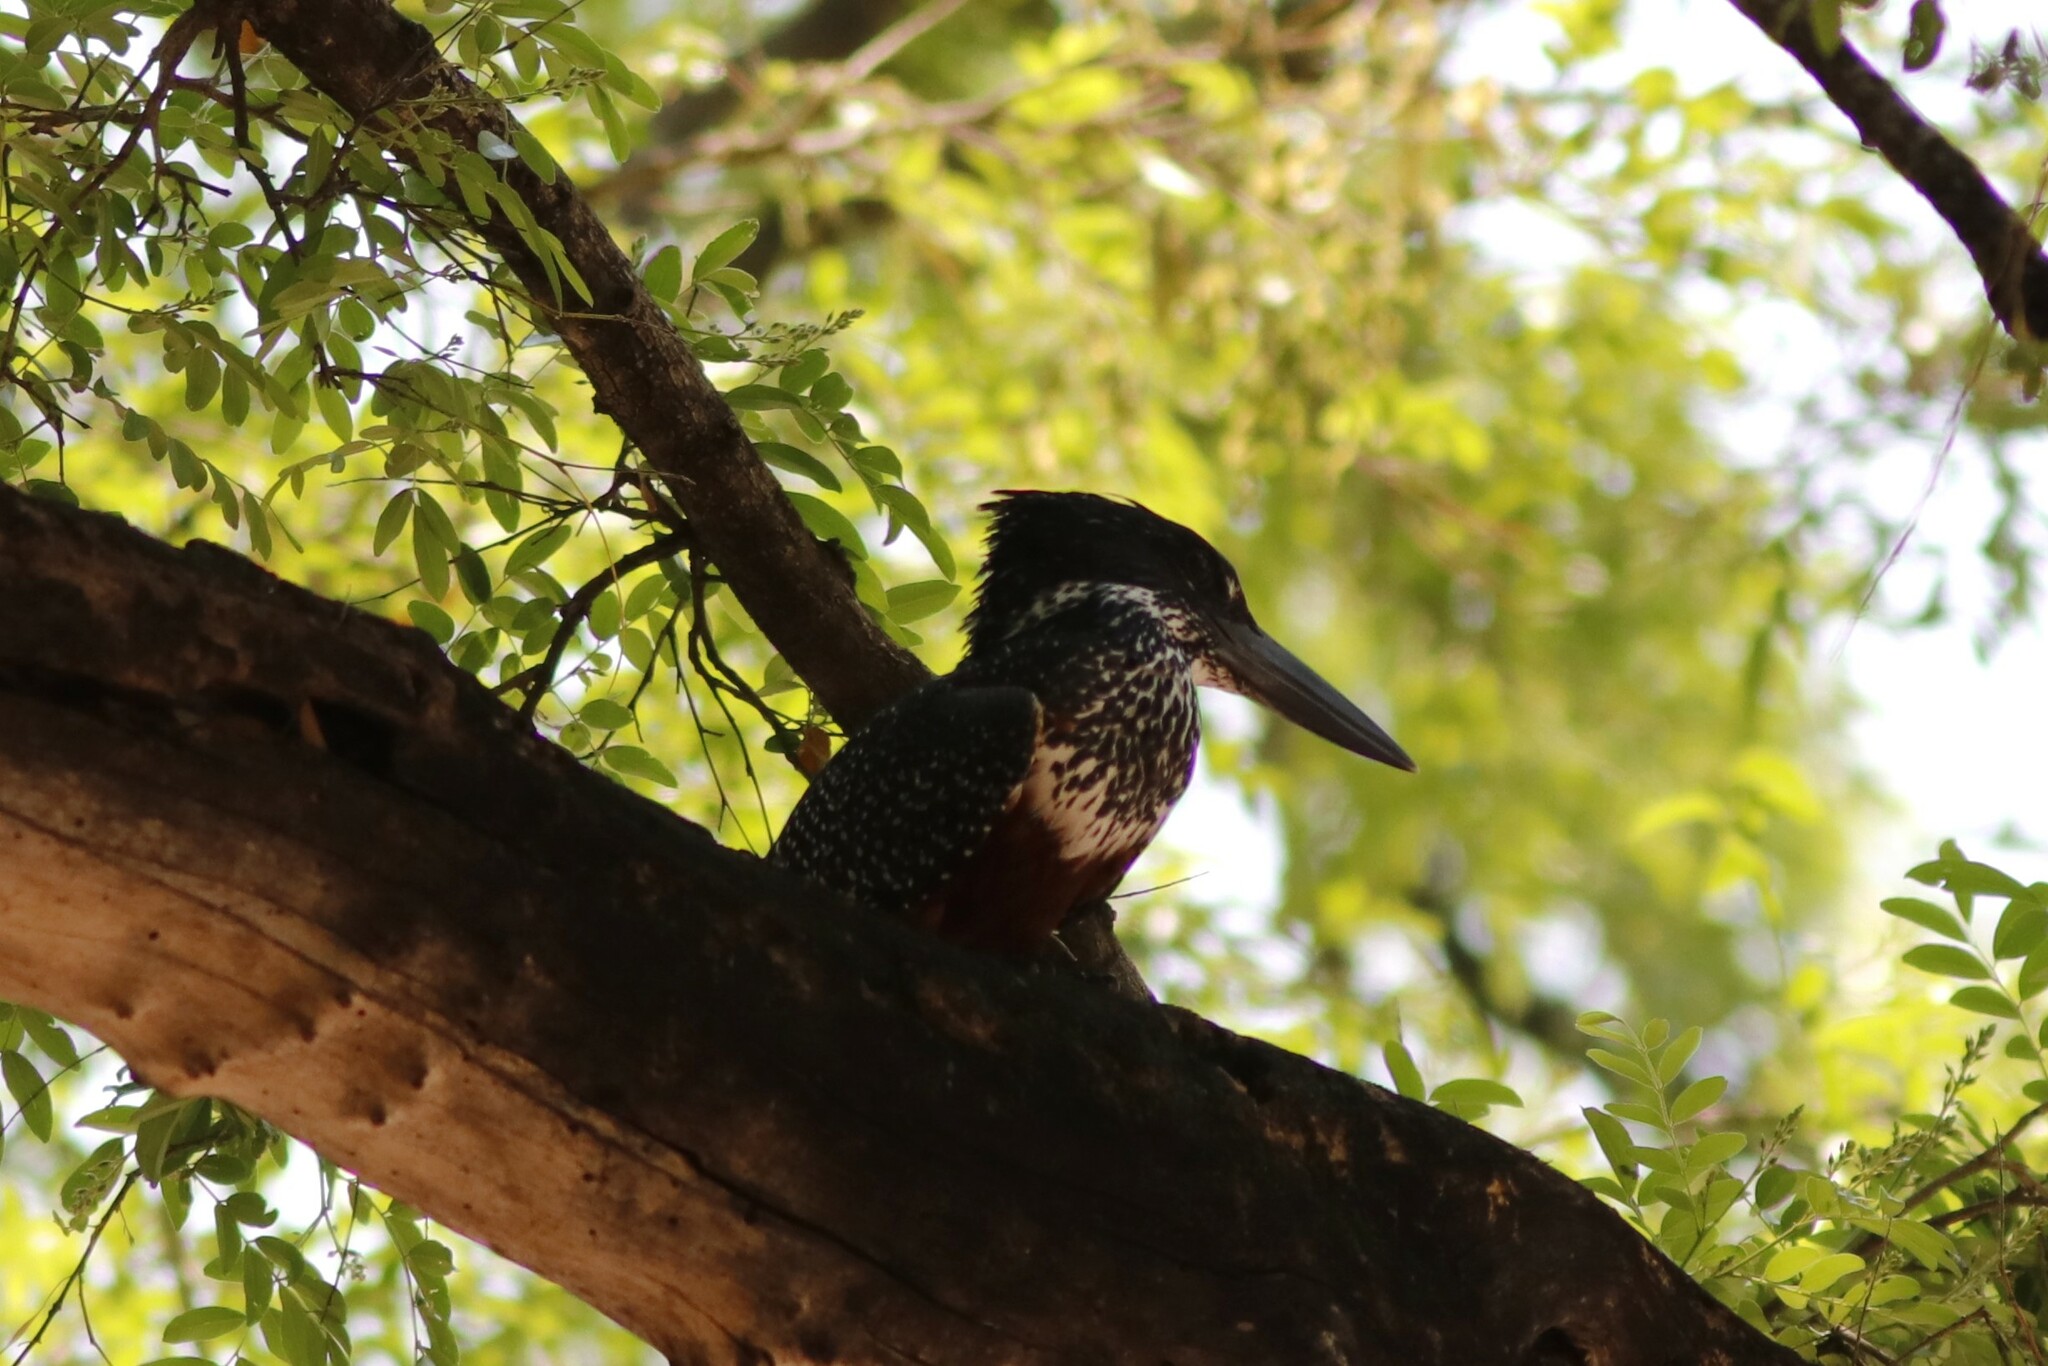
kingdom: Animalia
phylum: Chordata
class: Aves
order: Coraciiformes
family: Alcedinidae
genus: Megaceryle
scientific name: Megaceryle maxima
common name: Giant kingfisher
